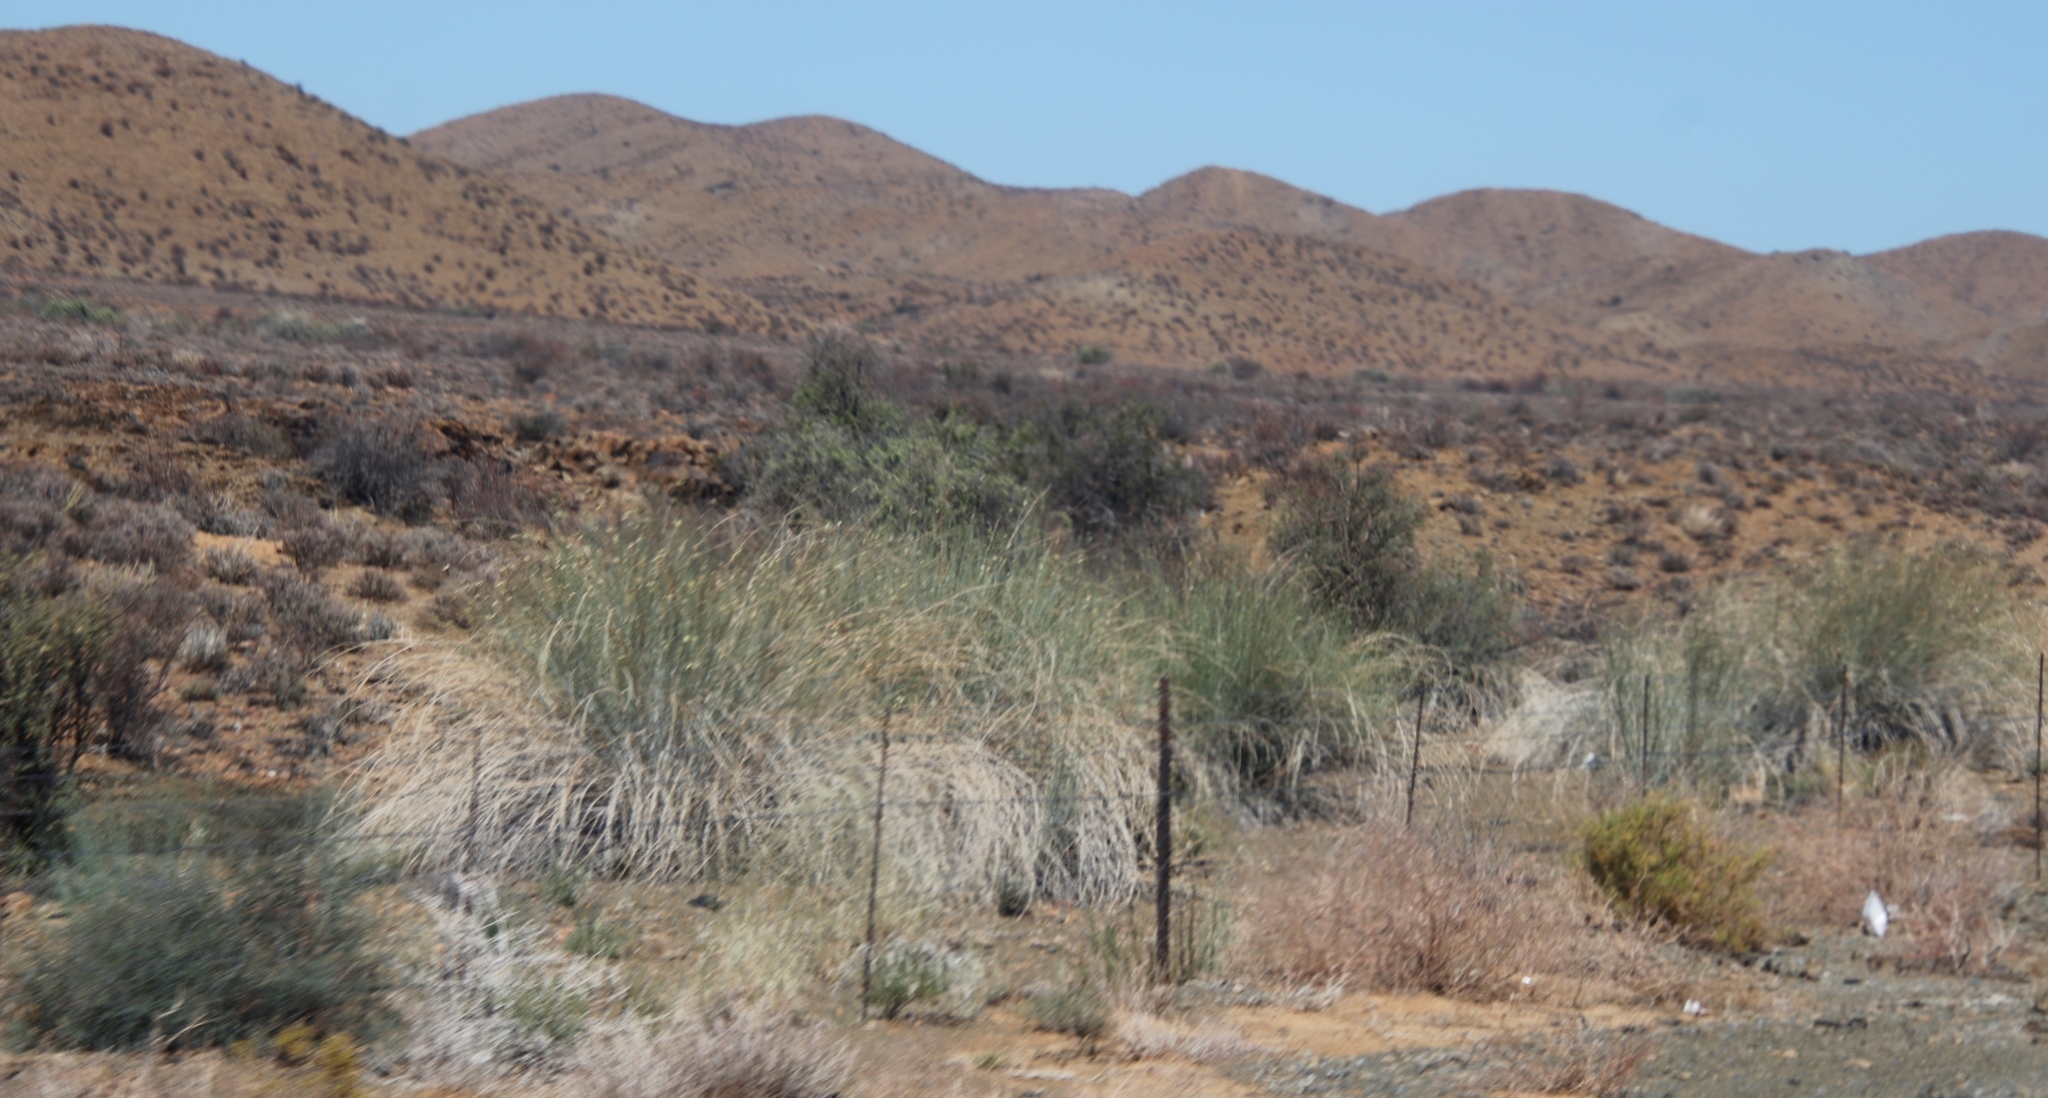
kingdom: Plantae
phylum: Tracheophyta
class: Magnoliopsida
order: Gentianales
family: Apocynaceae
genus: Gomphocarpus
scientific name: Gomphocarpus filiformis
